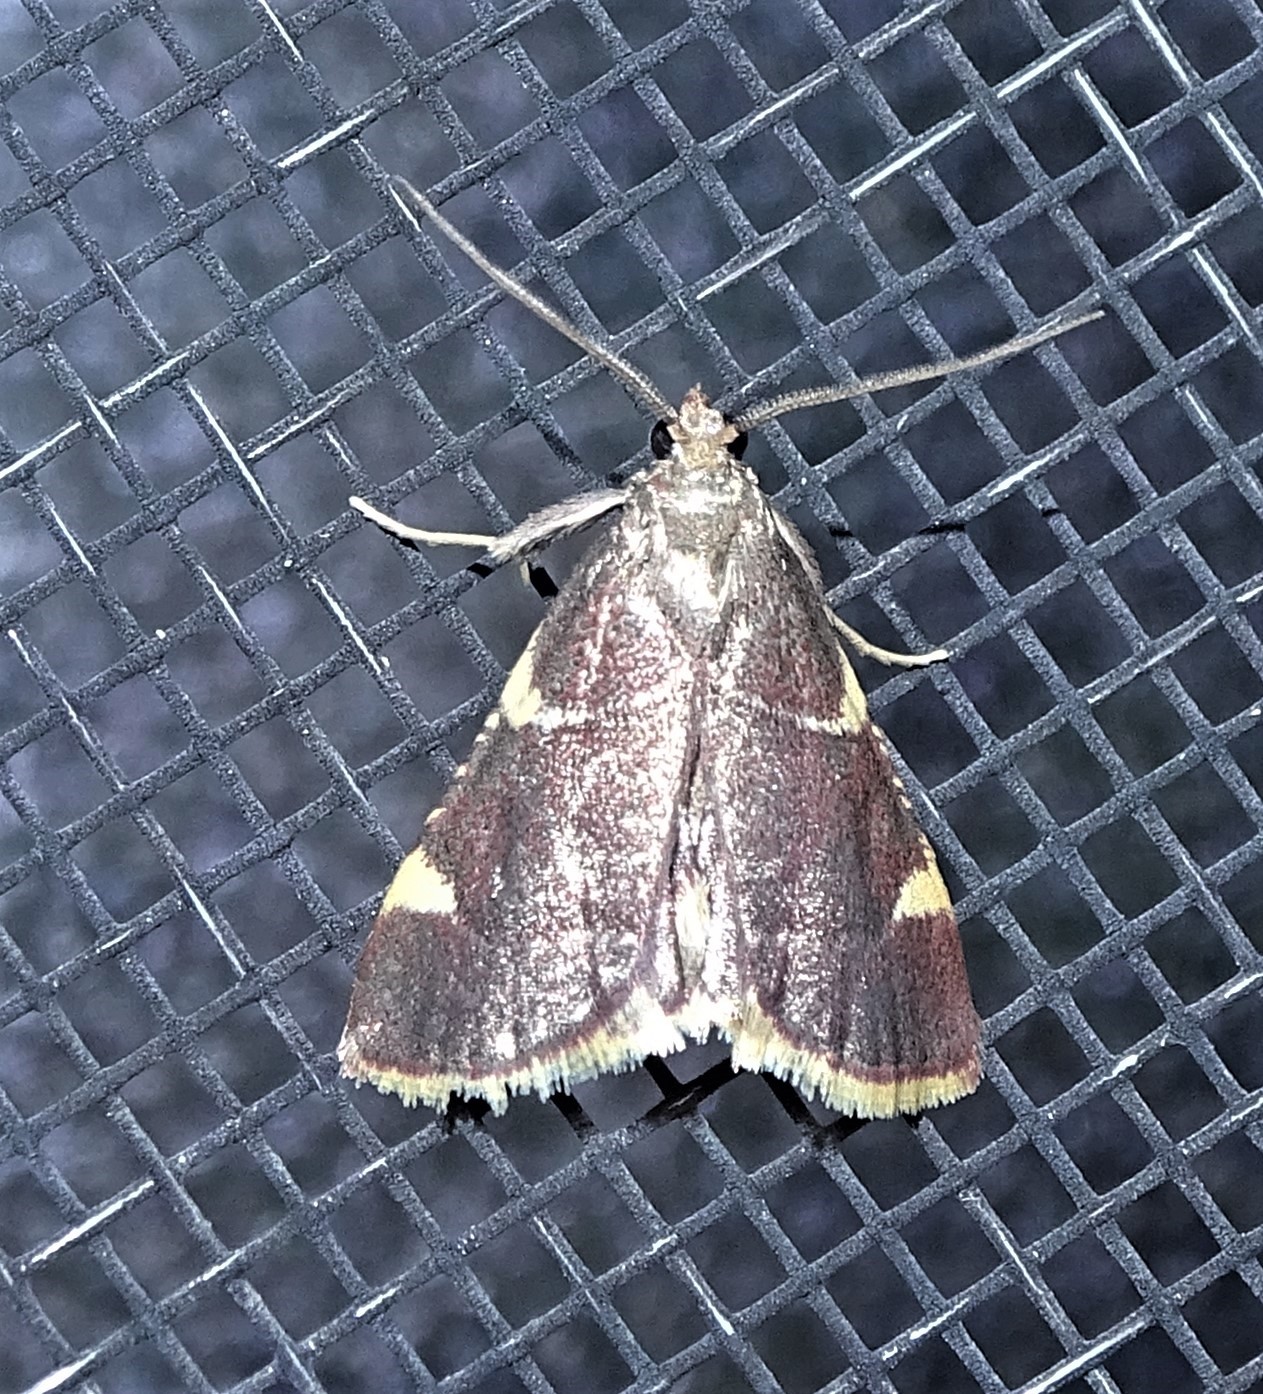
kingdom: Animalia
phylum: Arthropoda
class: Insecta
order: Lepidoptera
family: Pyralidae
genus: Hypsopygia
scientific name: Hypsopygia olinalis
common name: Yellow-fringed dolichomia moth
